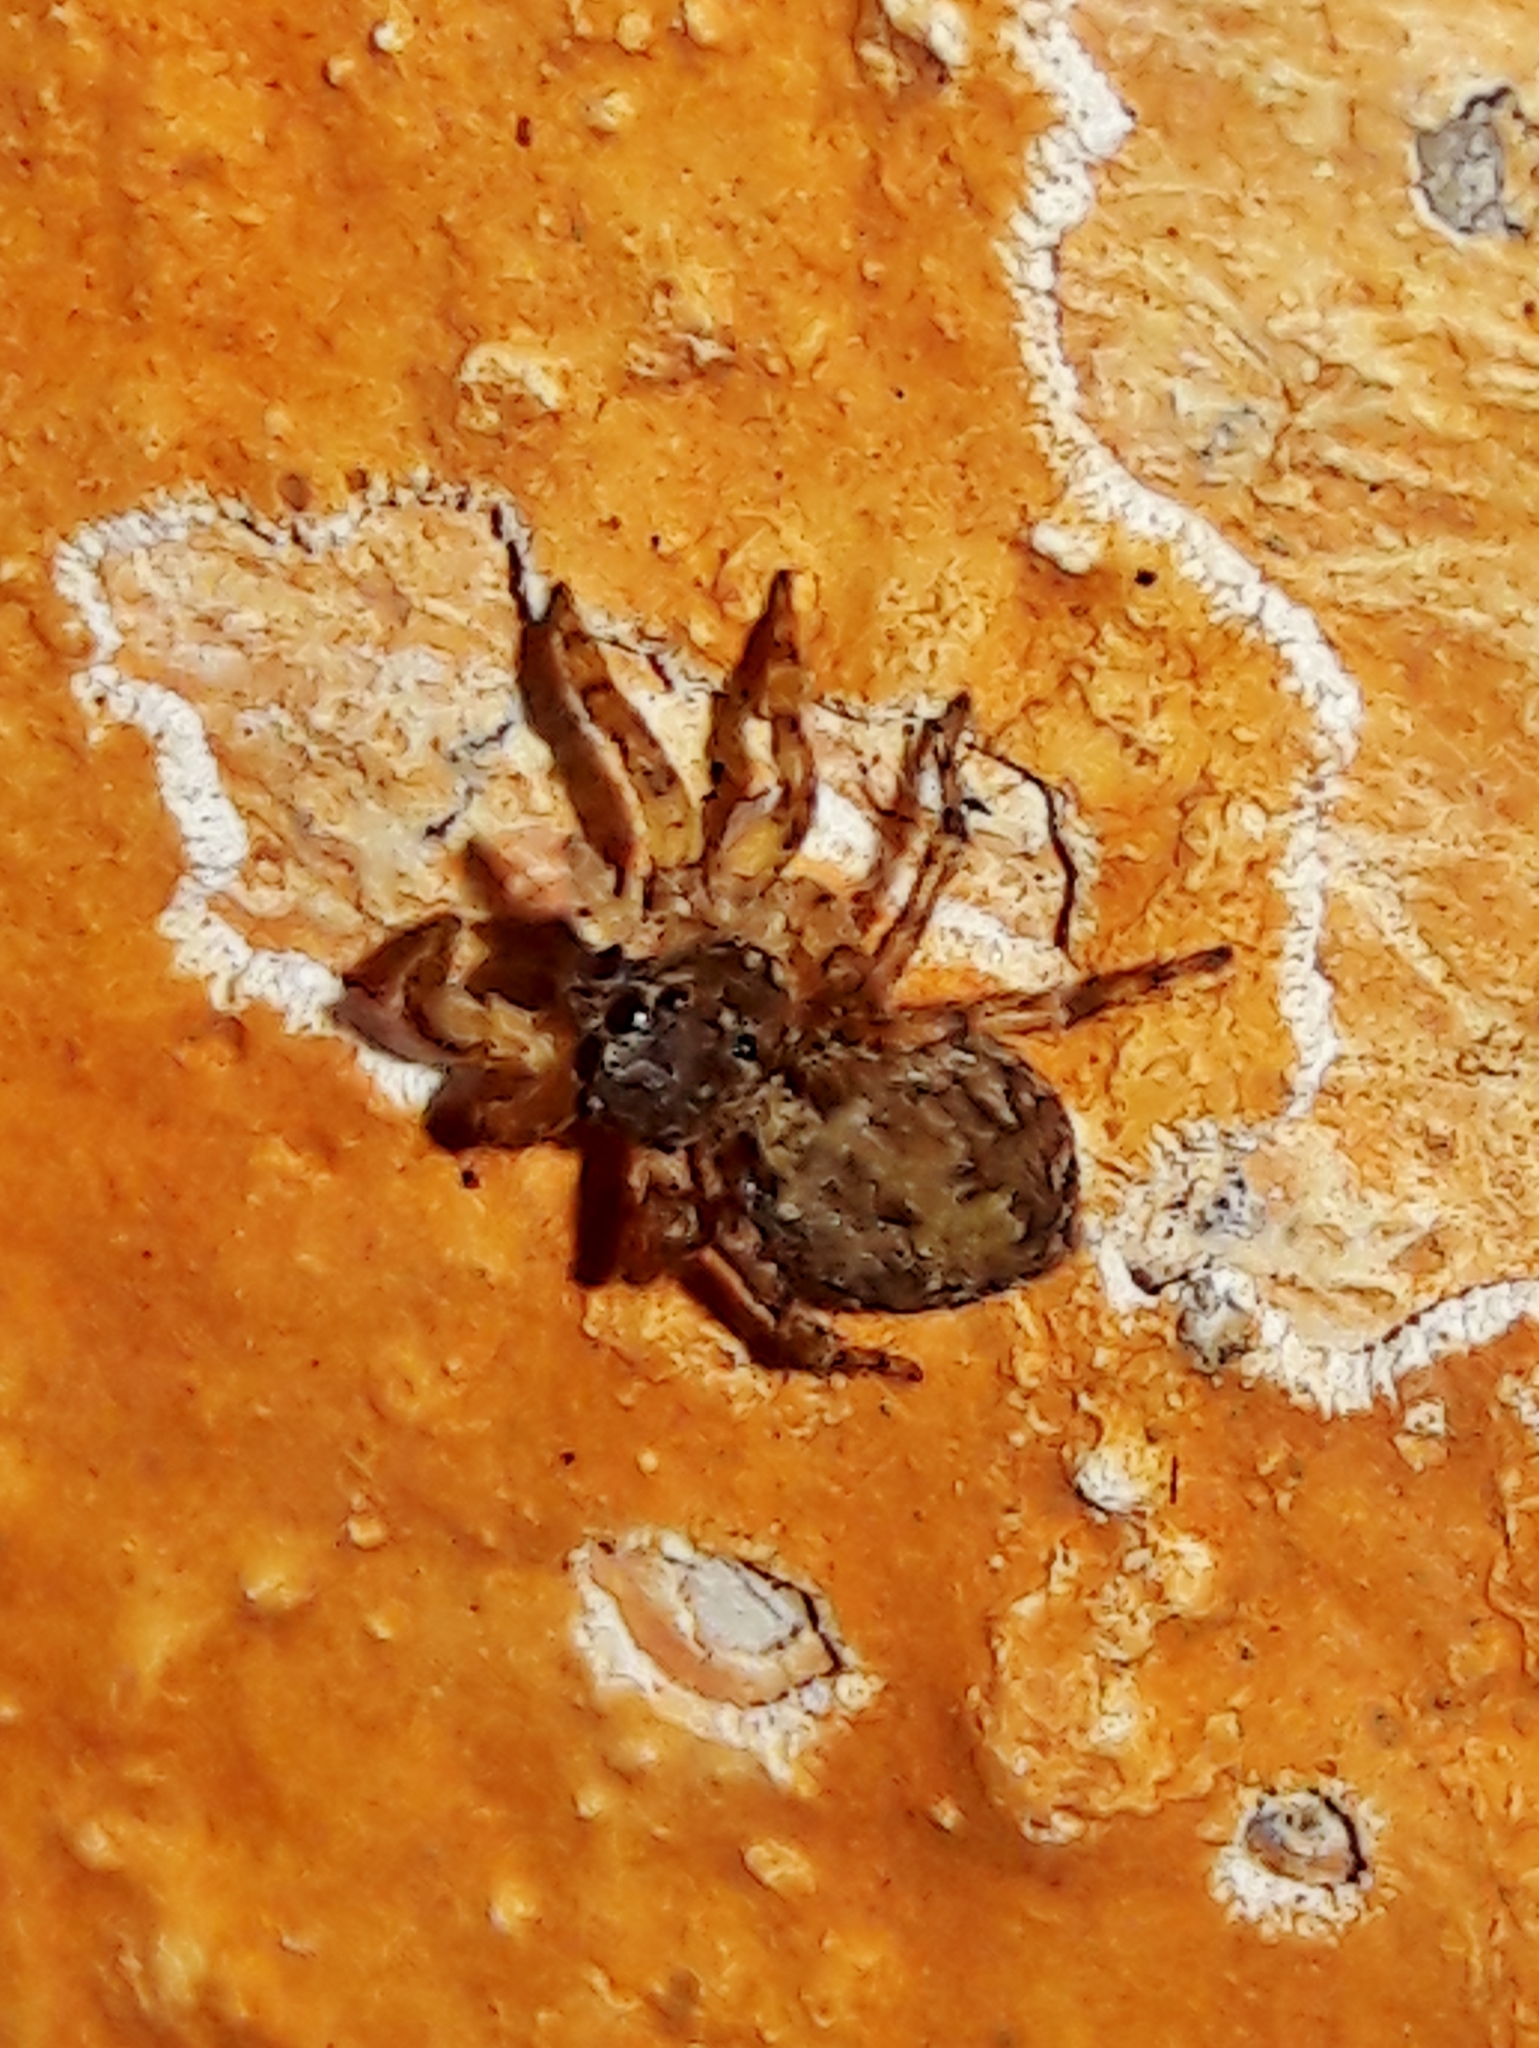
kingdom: Animalia
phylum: Arthropoda
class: Arachnida
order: Araneae
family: Salticidae
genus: Marma
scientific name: Marma nigritarsis
